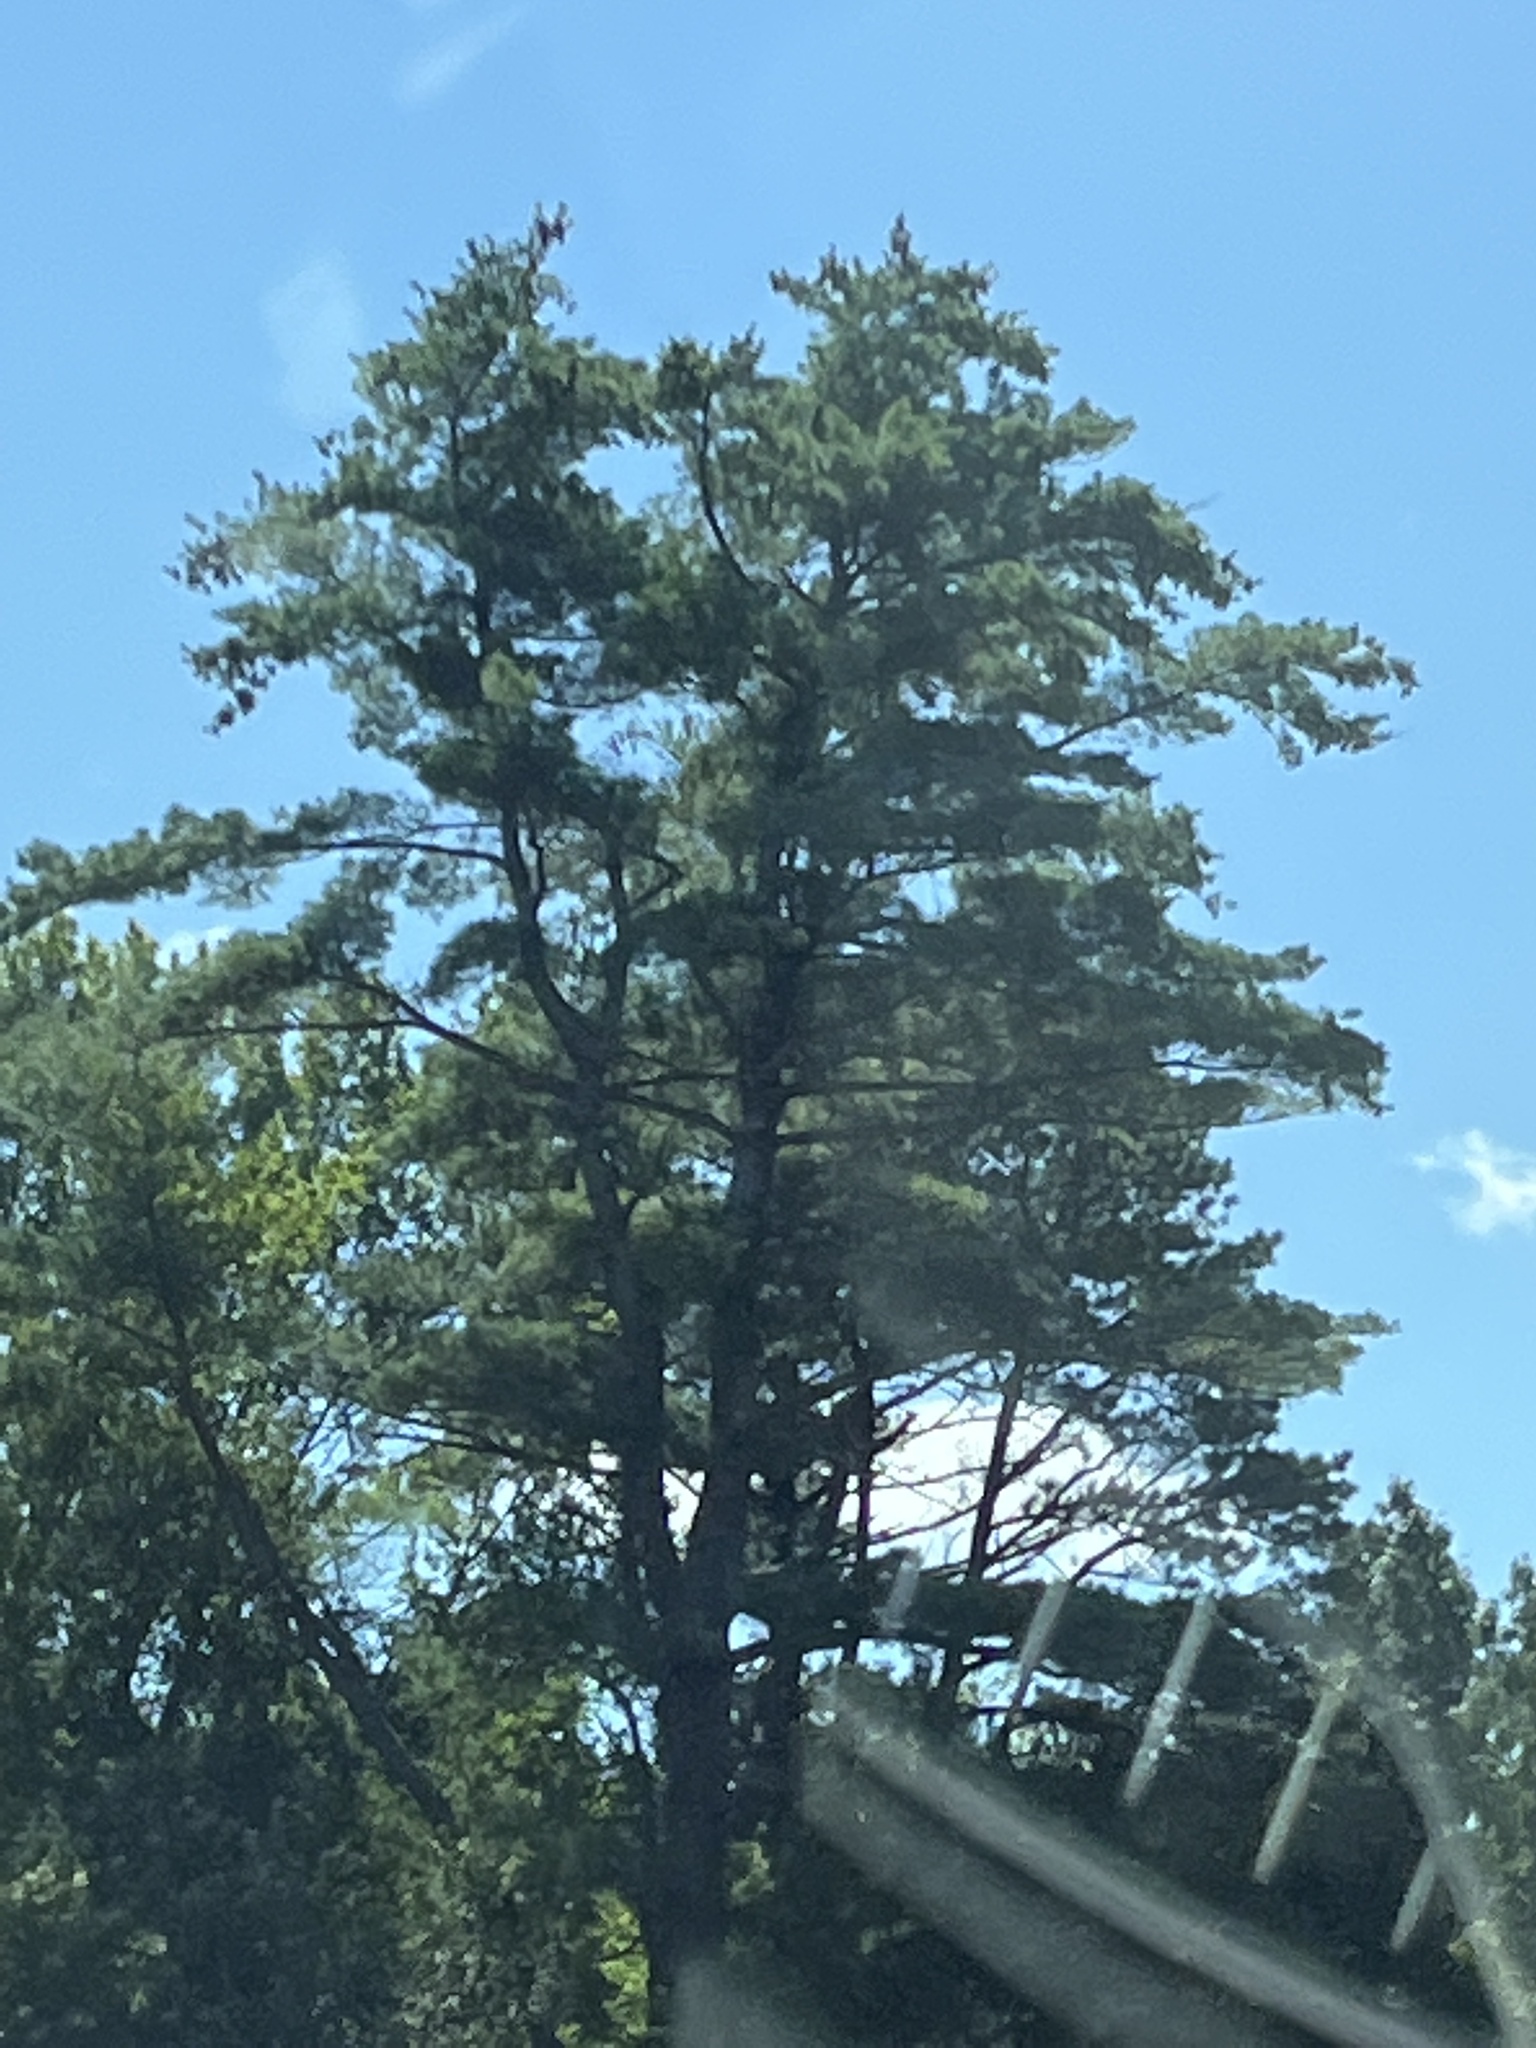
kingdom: Plantae
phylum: Tracheophyta
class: Pinopsida
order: Pinales
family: Pinaceae
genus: Pinus
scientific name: Pinus strobus
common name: Weymouth pine
